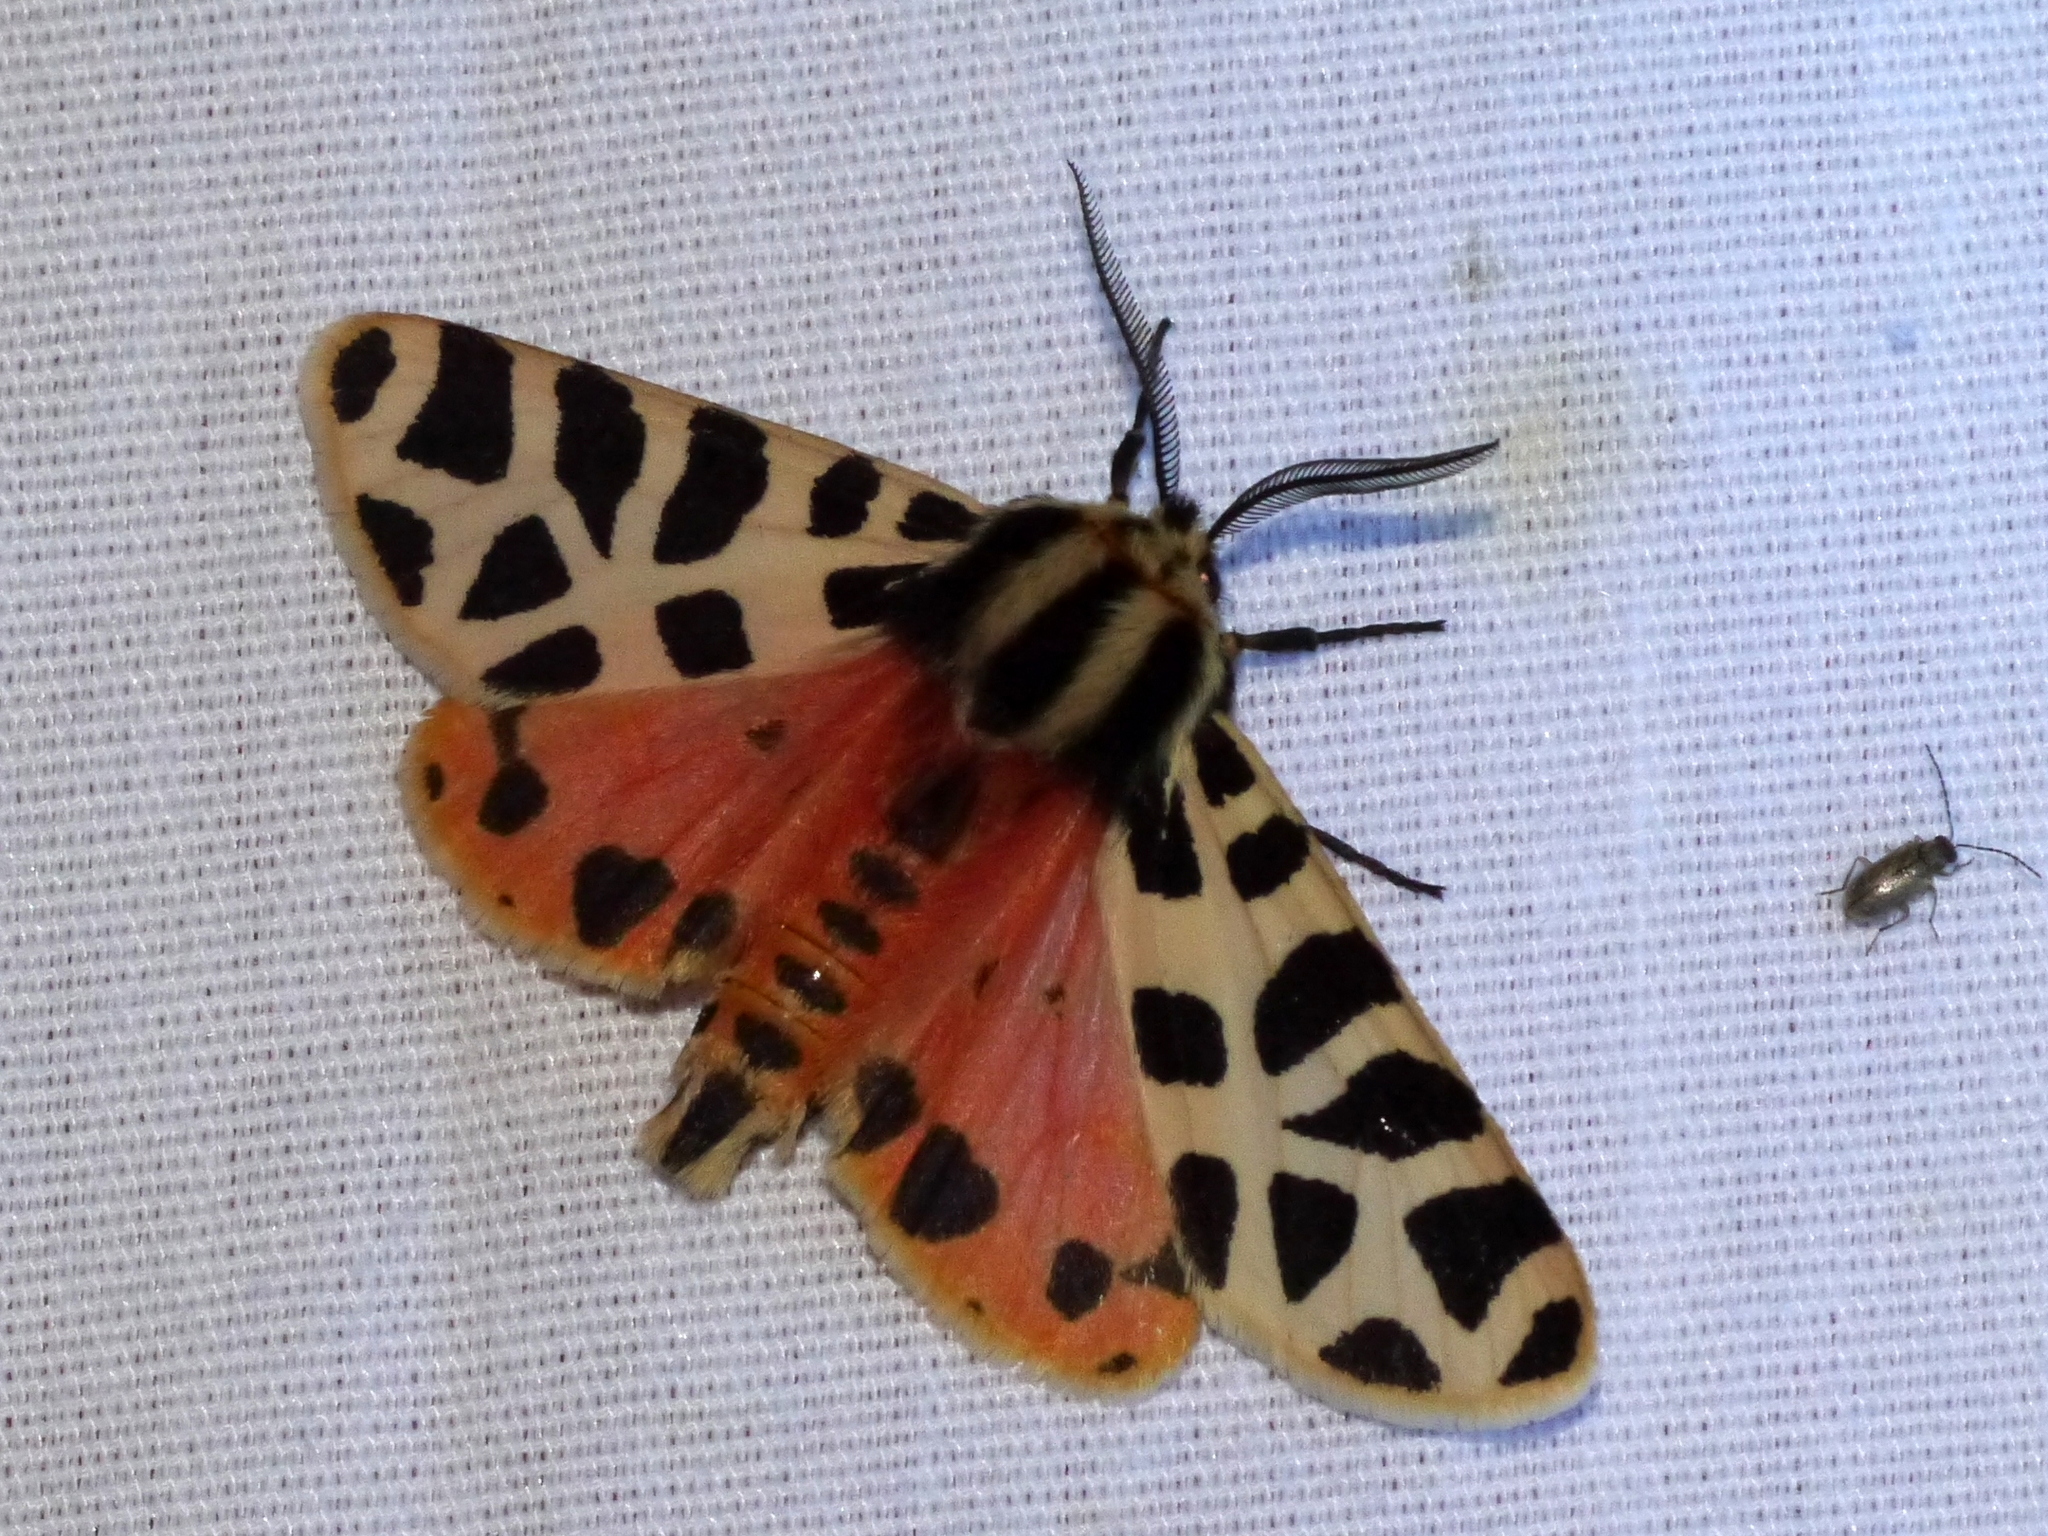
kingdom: Animalia
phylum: Arthropoda
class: Insecta
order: Lepidoptera
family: Erebidae
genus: Apantesis
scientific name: Apantesis incorrupta
